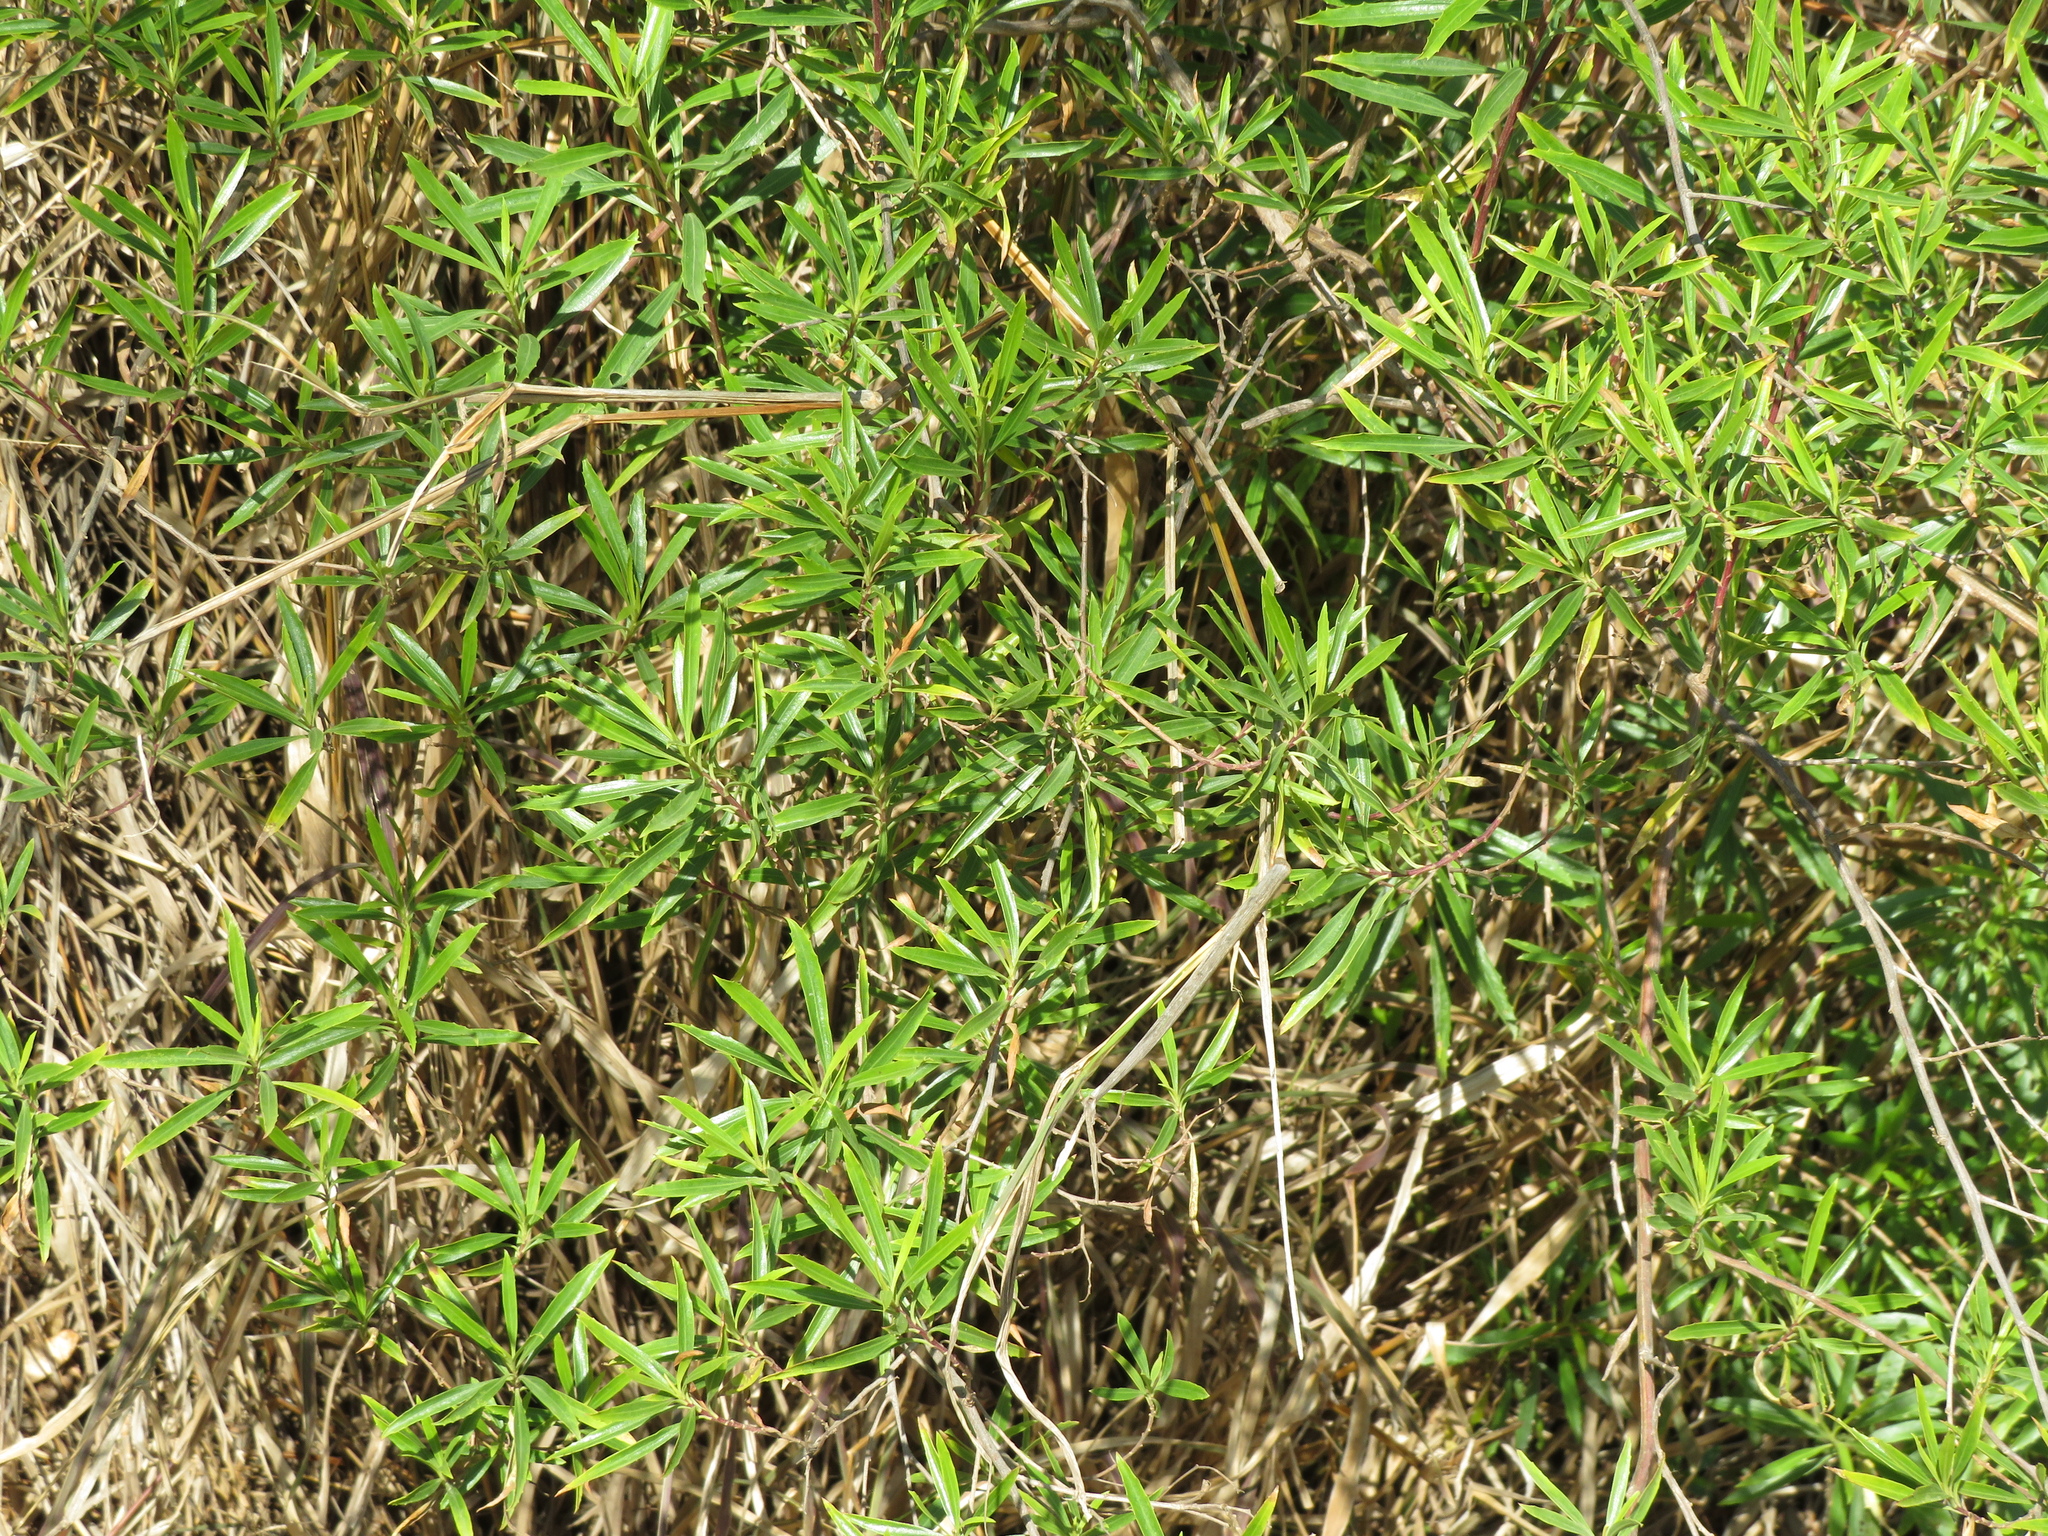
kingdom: Plantae
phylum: Tracheophyta
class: Magnoliopsida
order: Asterales
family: Asteraceae
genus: Baccharis
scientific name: Baccharis salicifolia
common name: Sticky baccharis
